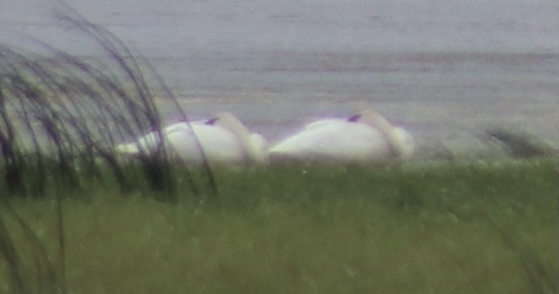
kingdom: Animalia
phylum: Chordata
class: Aves
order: Anseriformes
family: Anatidae
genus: Cygnus
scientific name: Cygnus buccinator
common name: Trumpeter swan
